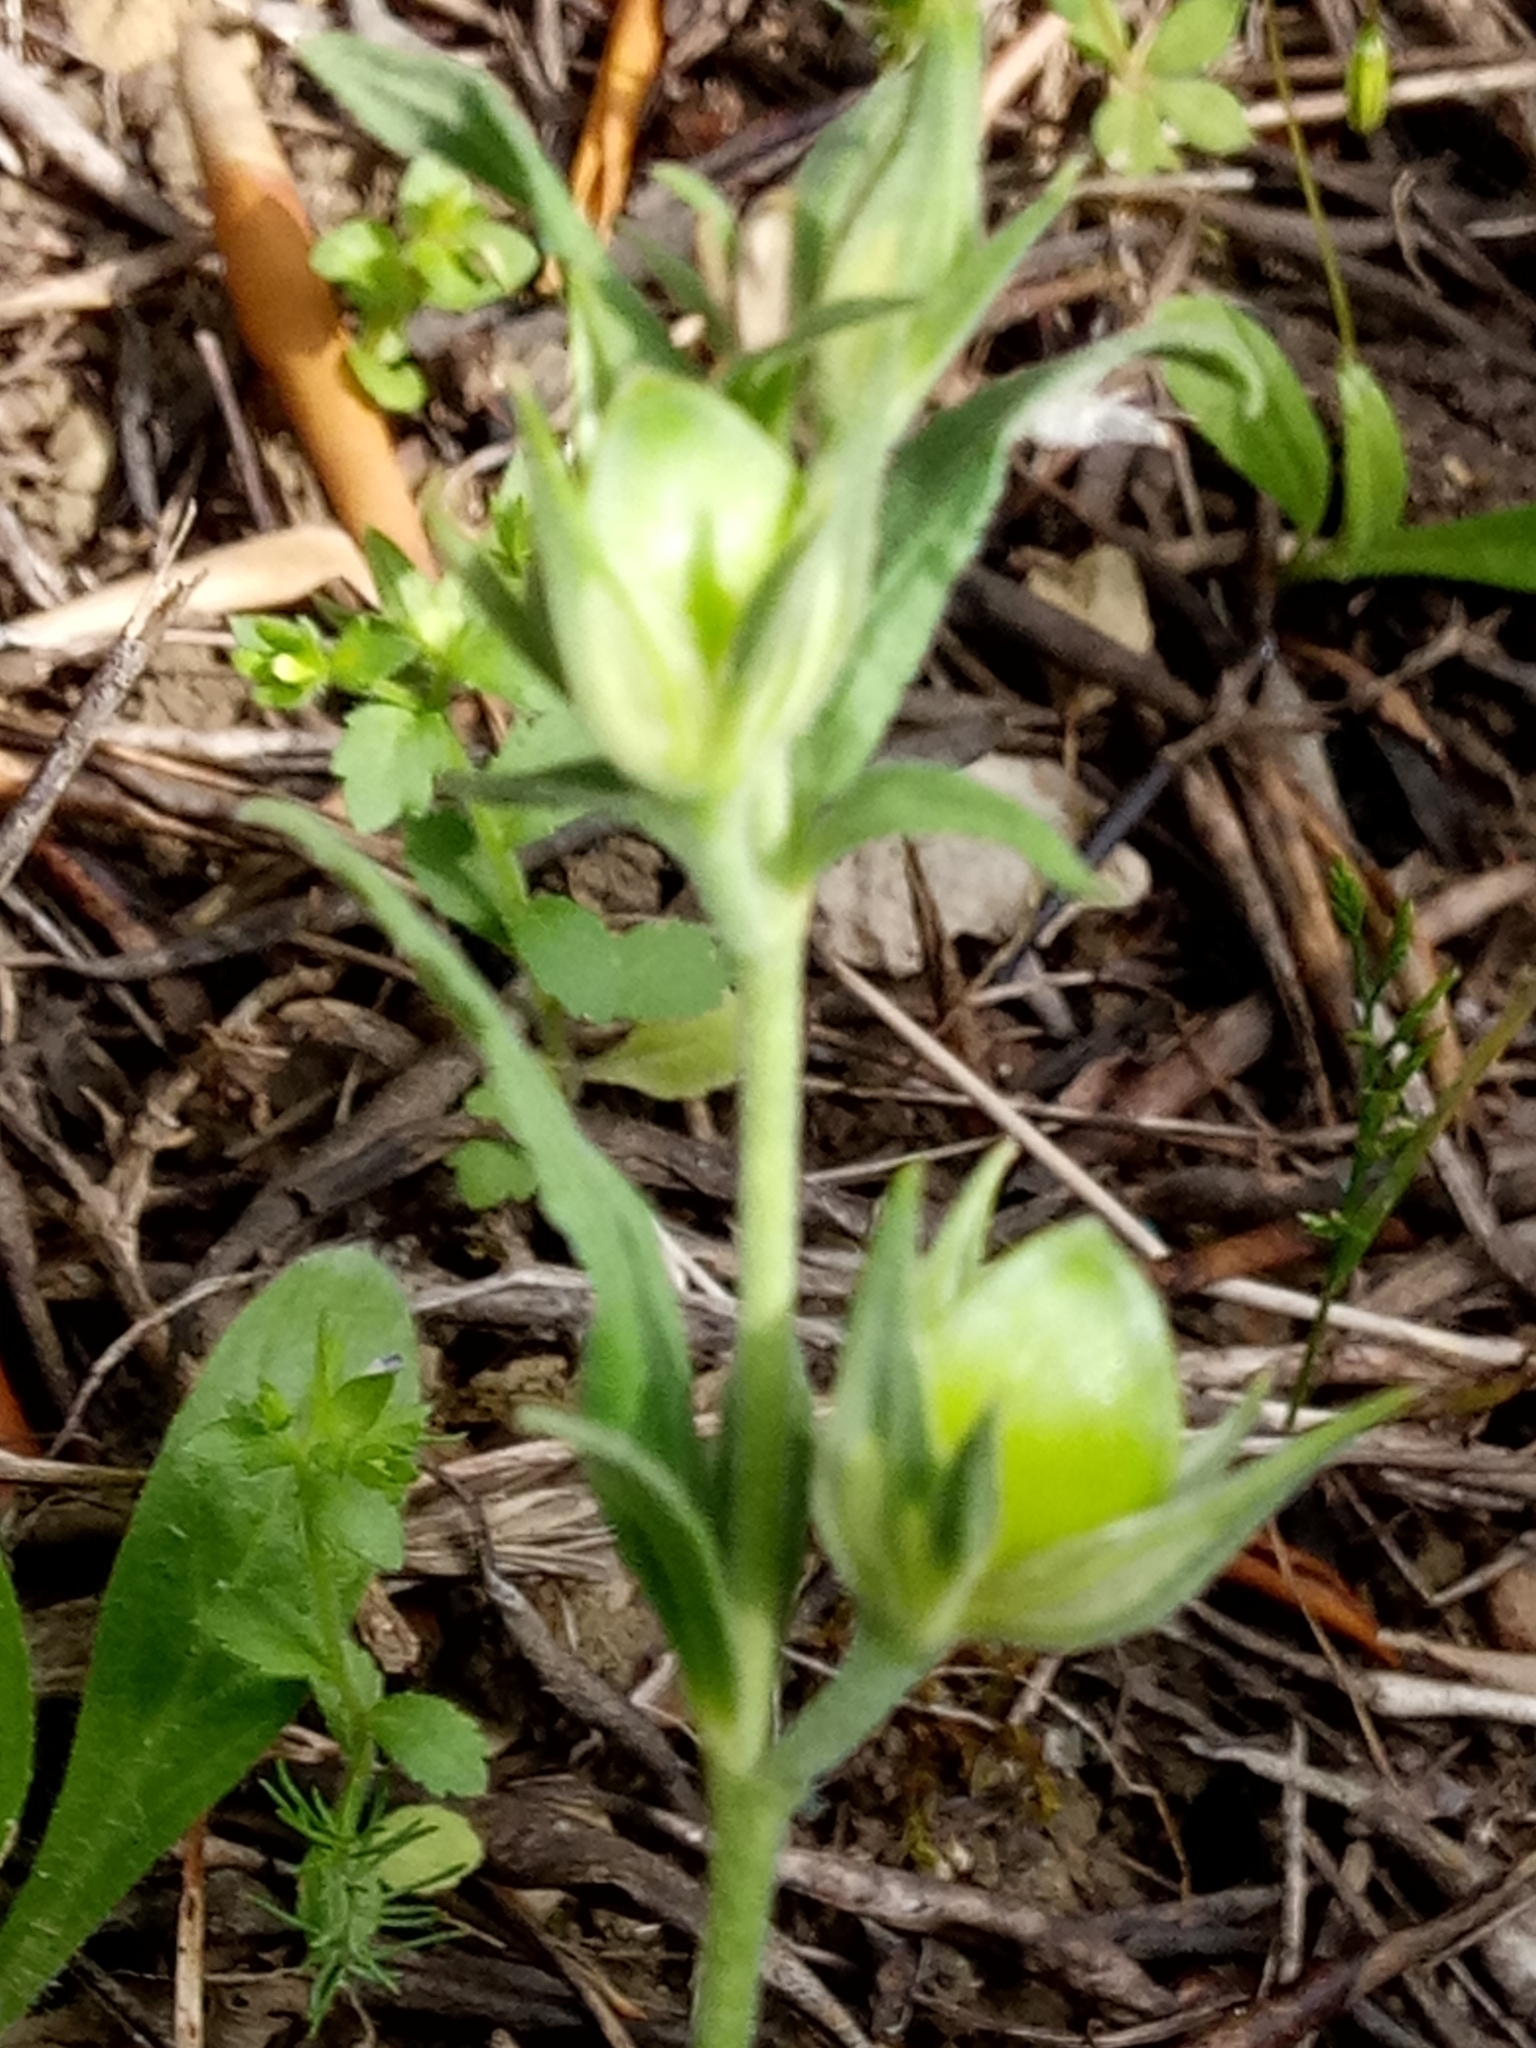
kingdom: Plantae
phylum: Tracheophyta
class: Magnoliopsida
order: Malvales
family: Cistaceae
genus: Helianthemum
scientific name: Helianthemum ledifolium
